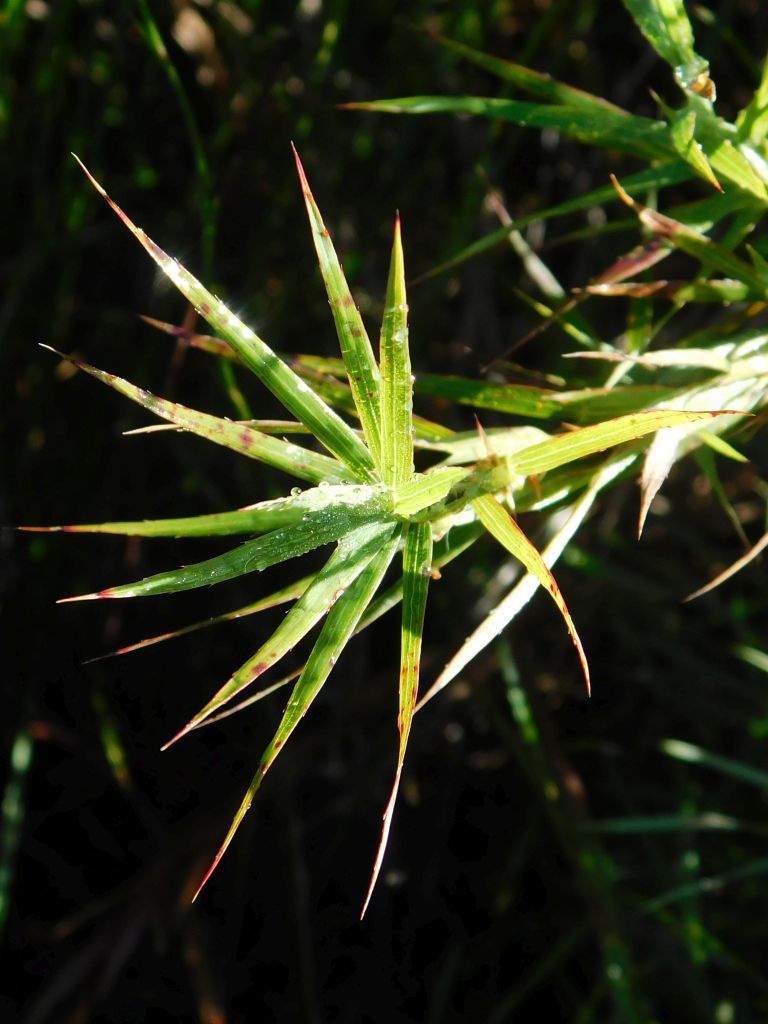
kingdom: Plantae
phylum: Tracheophyta
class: Magnoliopsida
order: Rosales
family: Rosaceae
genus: Cliffortia
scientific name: Cliffortia graminea
